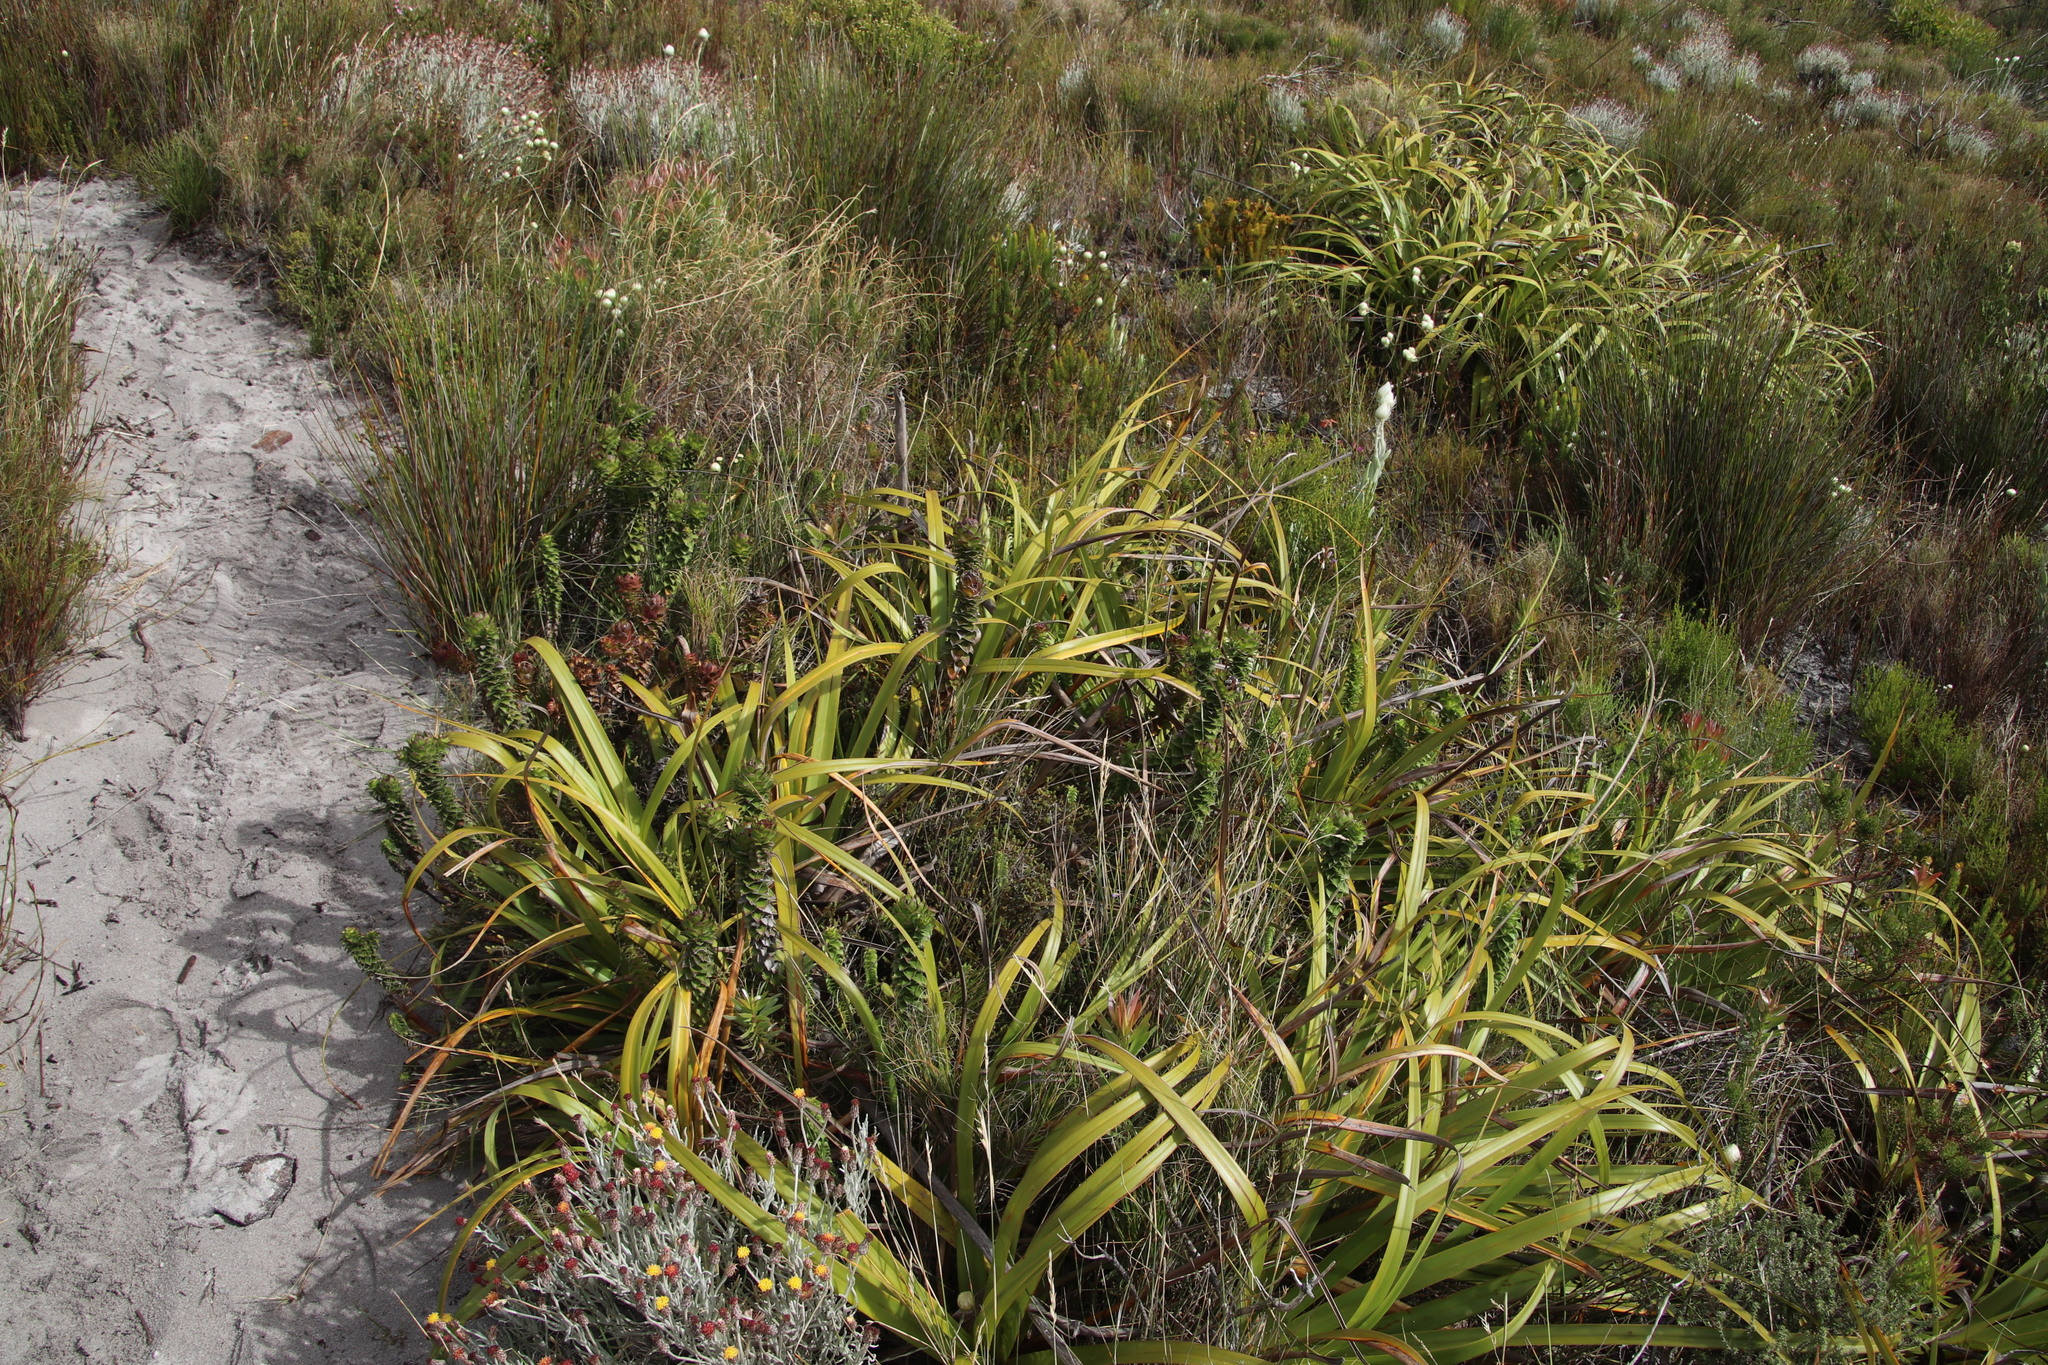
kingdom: Plantae
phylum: Tracheophyta
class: Magnoliopsida
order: Asterales
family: Asteraceae
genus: Oedera
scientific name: Oedera capensis
